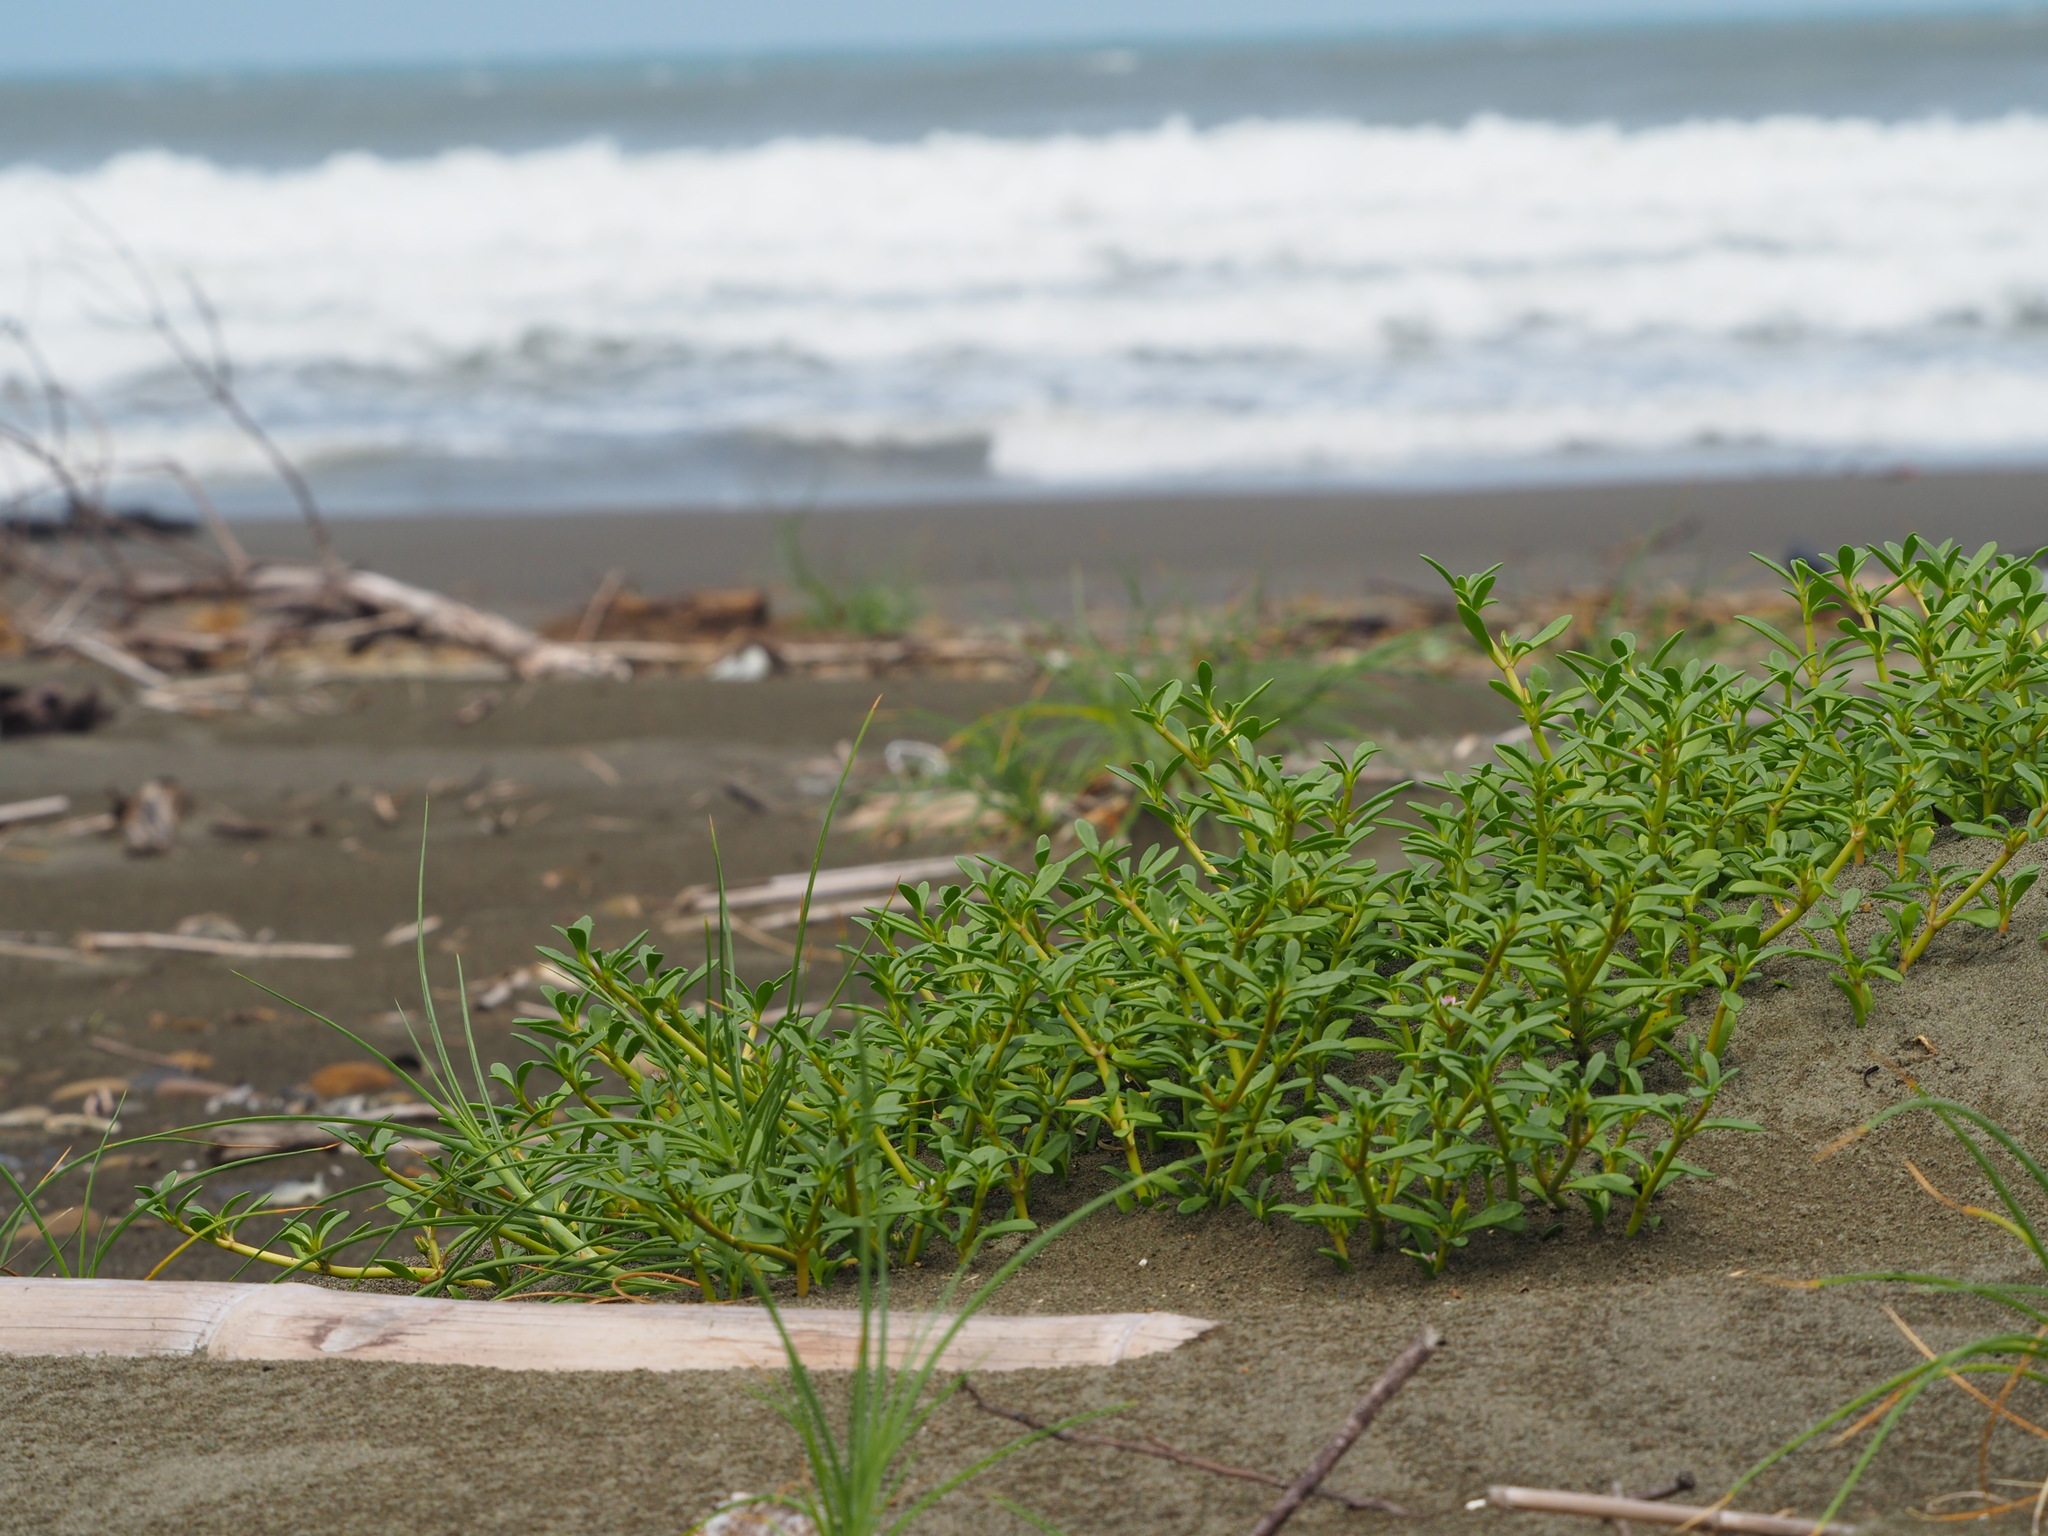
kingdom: Plantae
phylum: Tracheophyta
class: Magnoliopsida
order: Caryophyllales
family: Aizoaceae
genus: Sesuvium
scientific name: Sesuvium portulacastrum
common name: Sea-purslane
